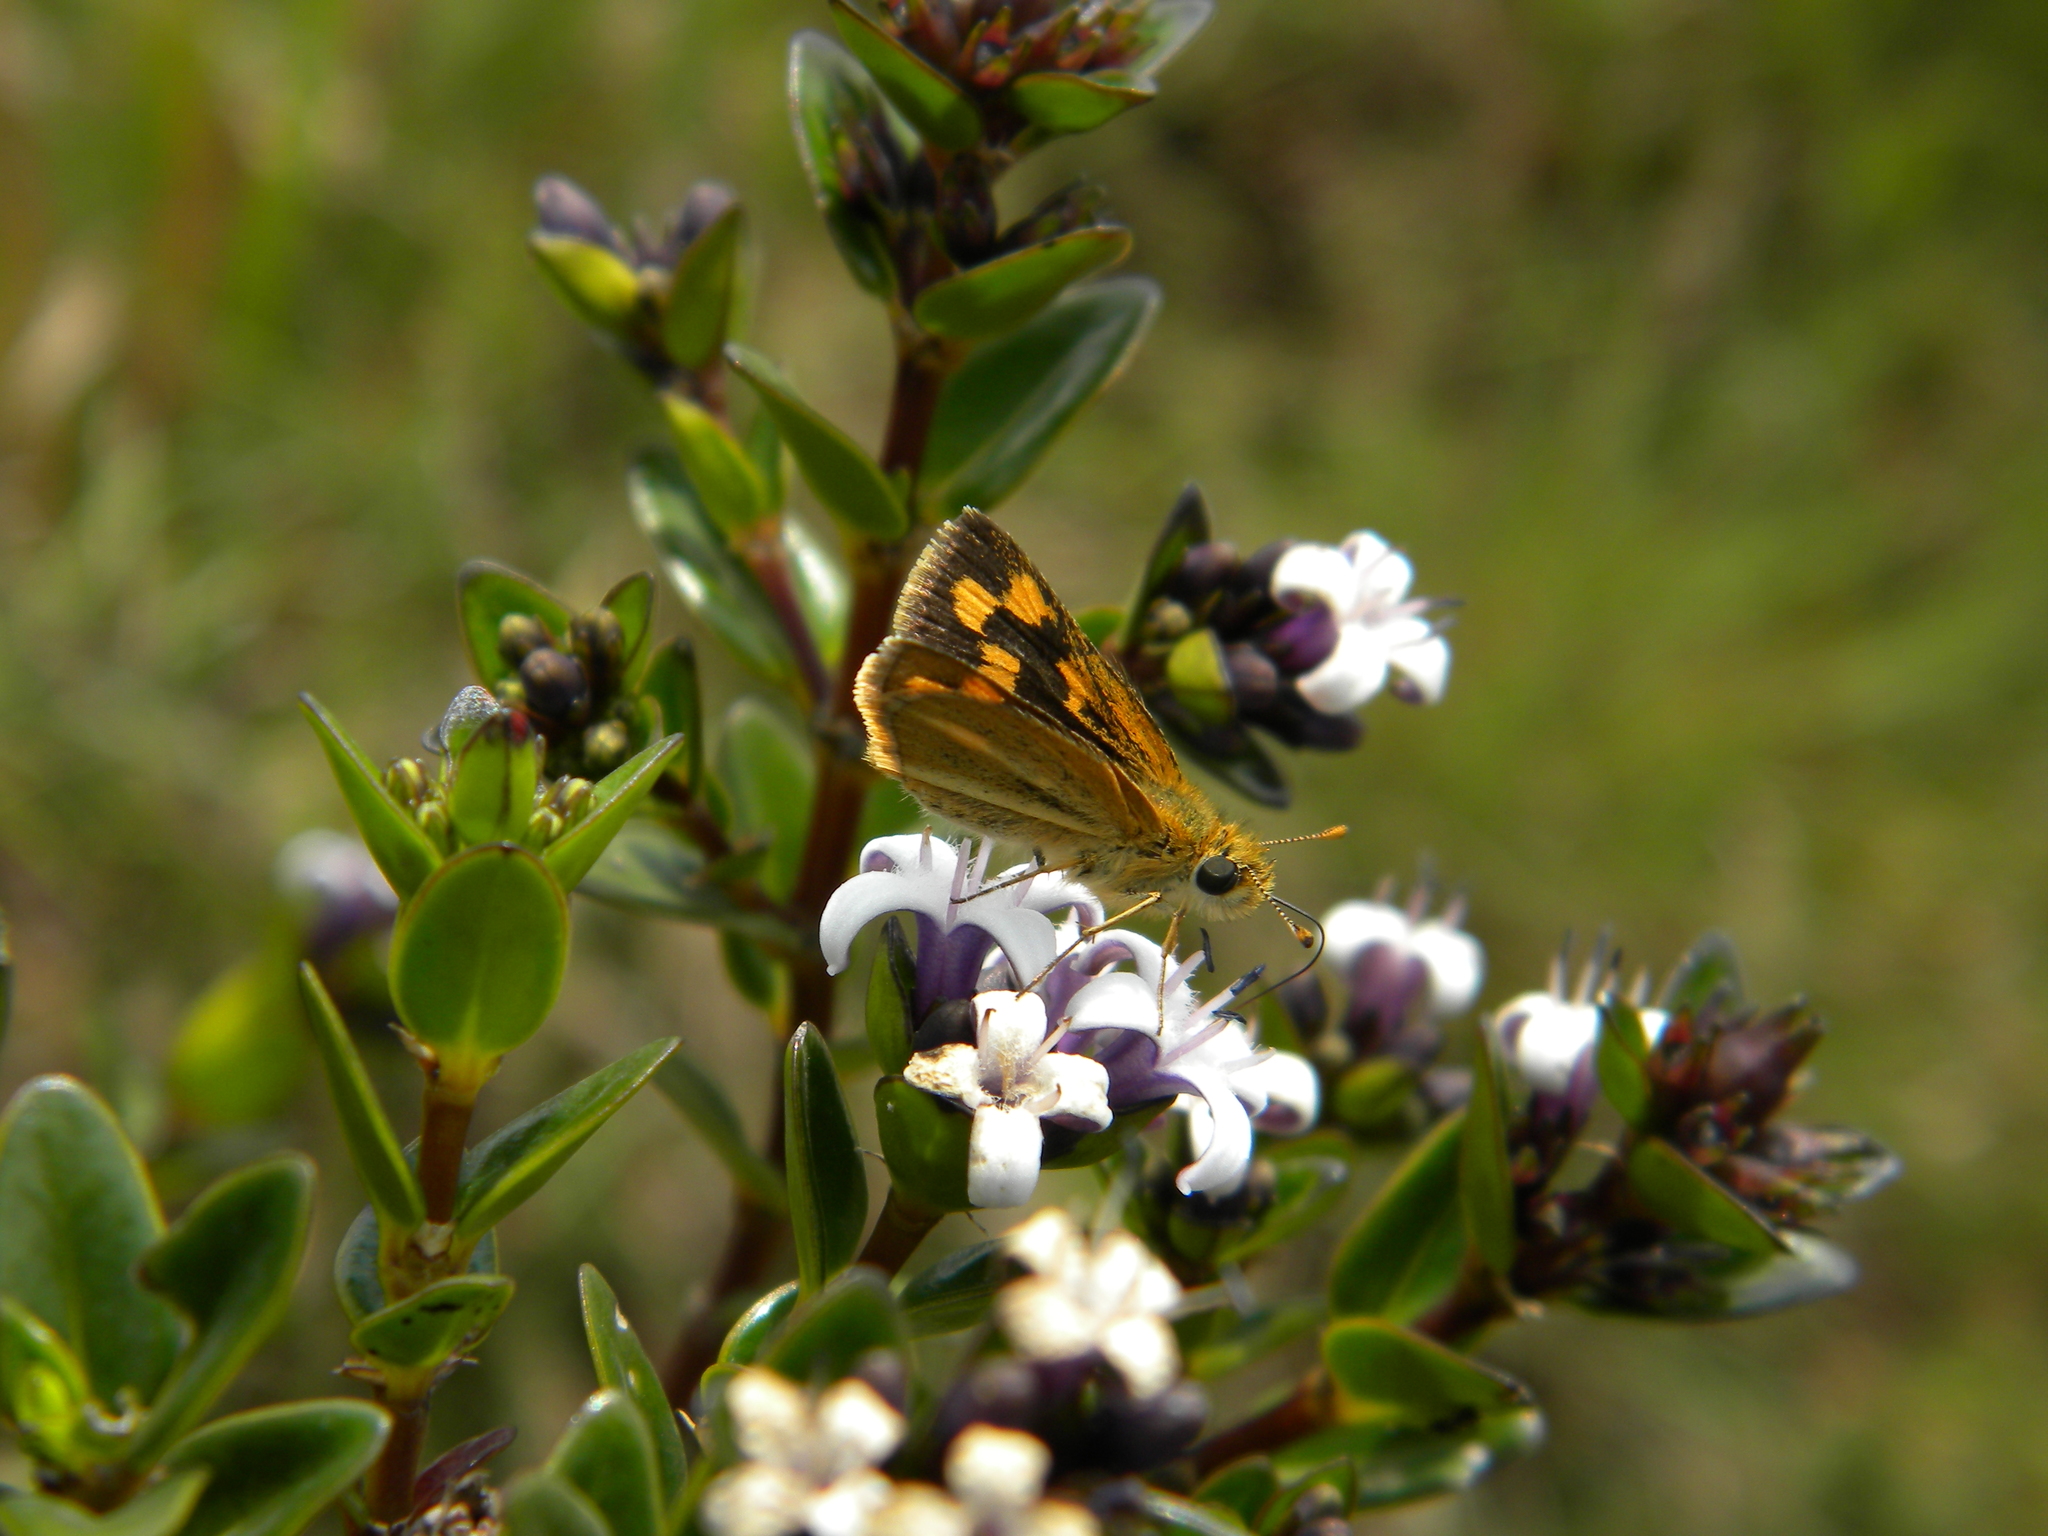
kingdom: Animalia
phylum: Arthropoda
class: Insecta
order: Lepidoptera
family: Hesperiidae
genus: Potanthus
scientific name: Potanthus omaha
